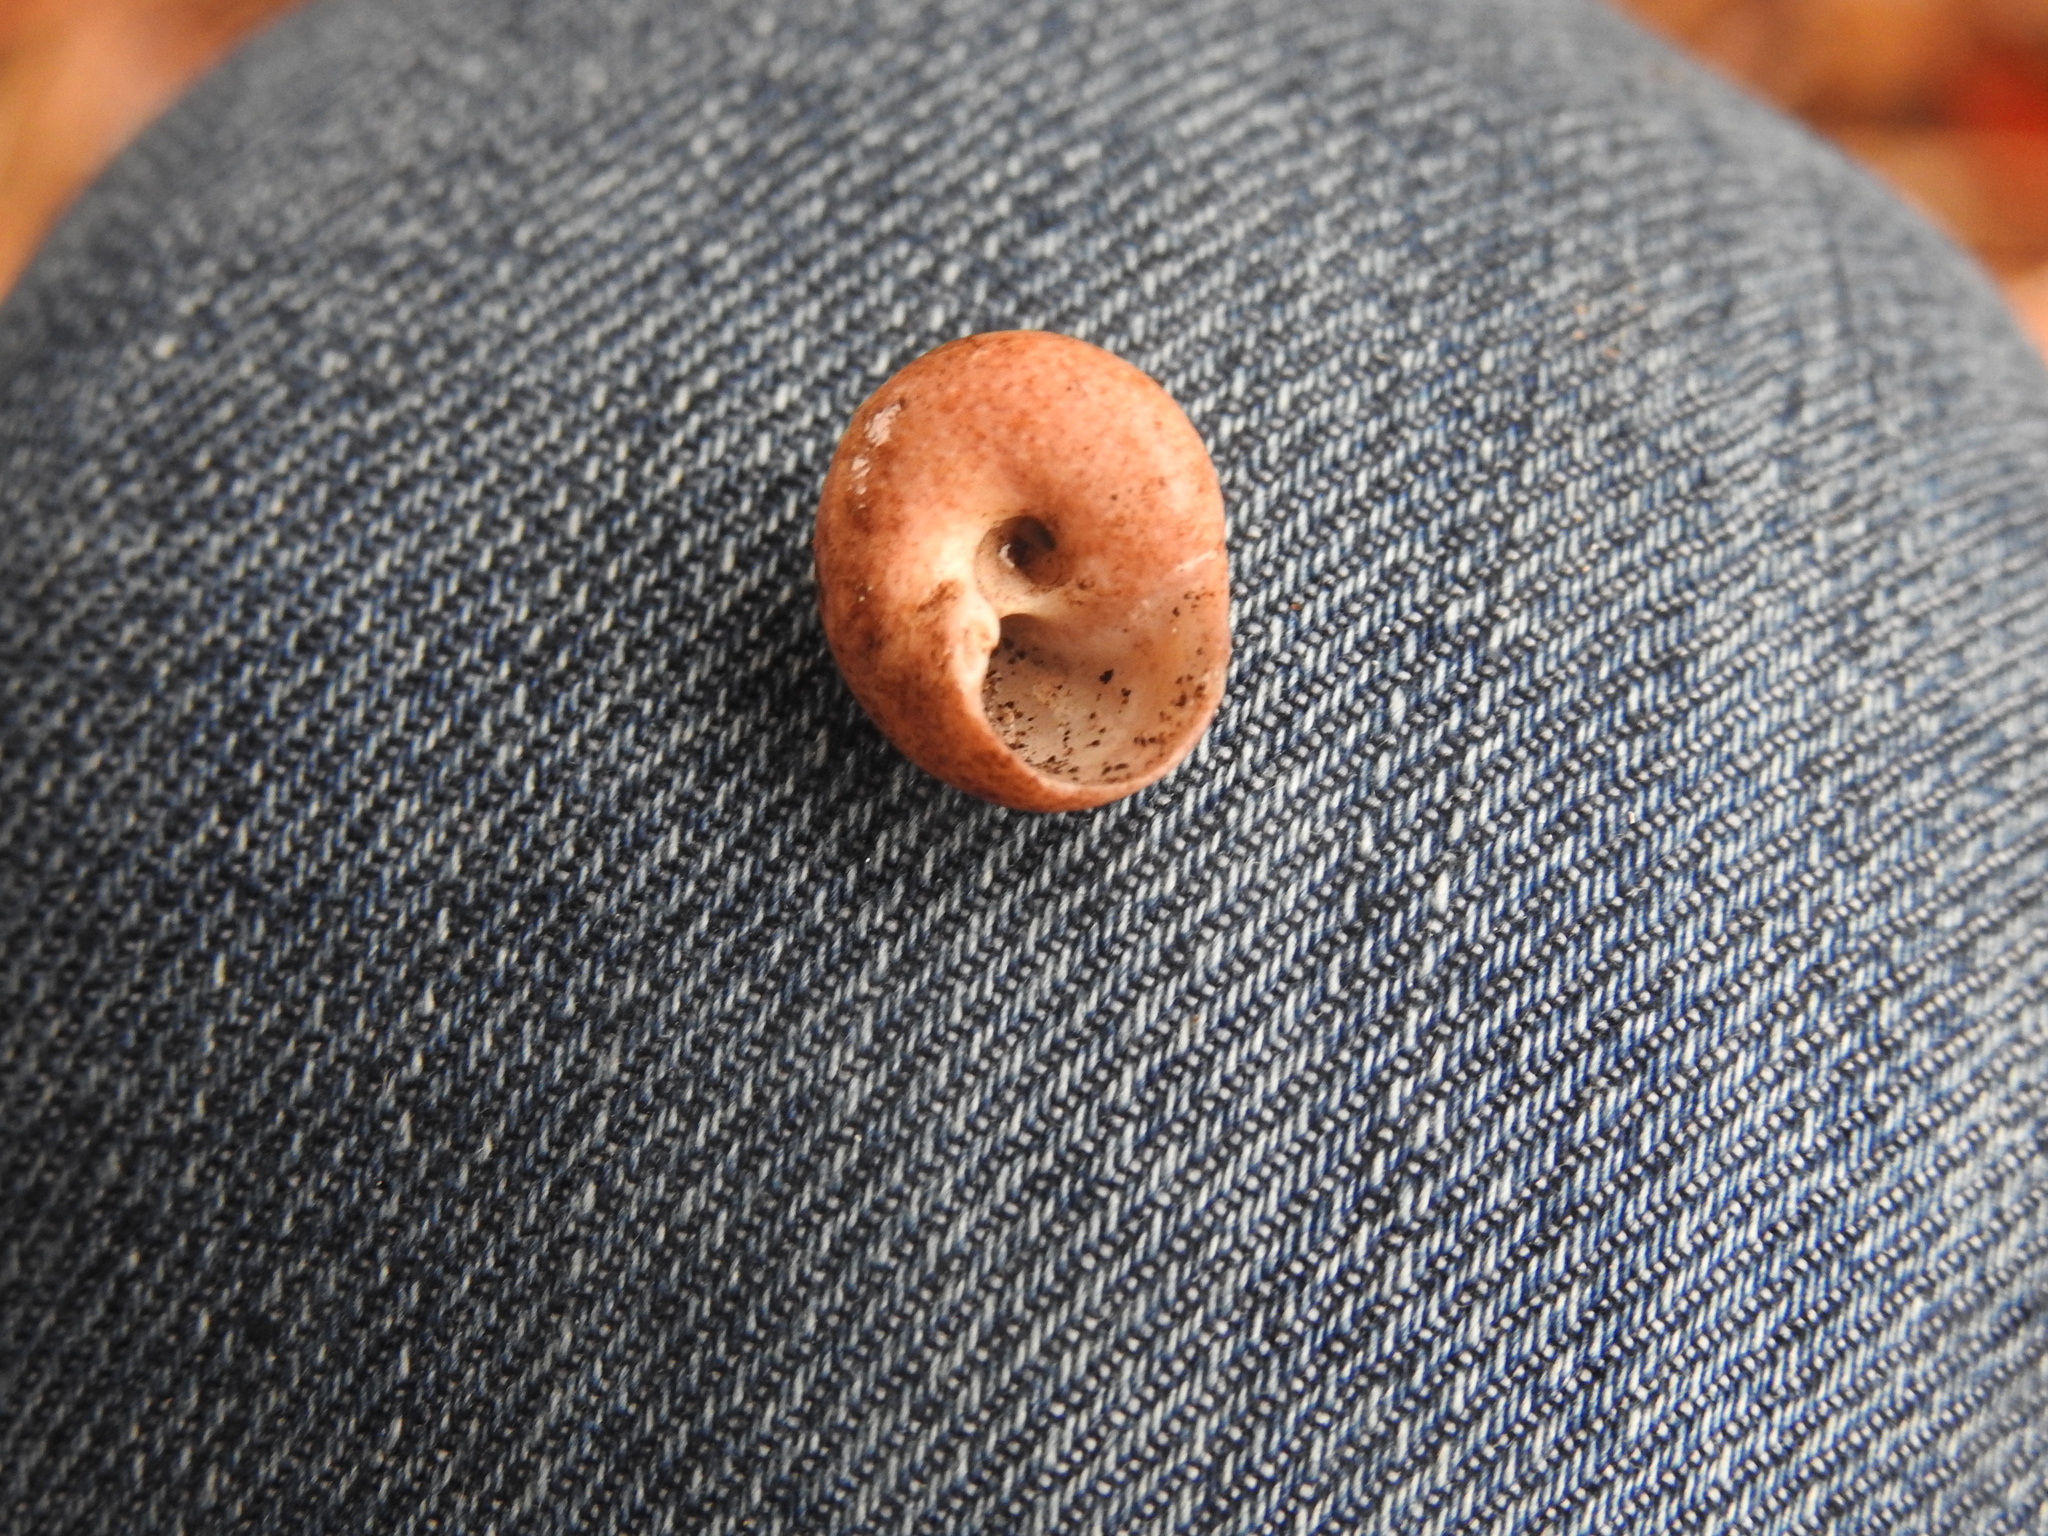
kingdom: Animalia
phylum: Mollusca
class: Gastropoda
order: Trochida
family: Tegulidae
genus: Agathistoma
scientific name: Agathistoma fasciatum
